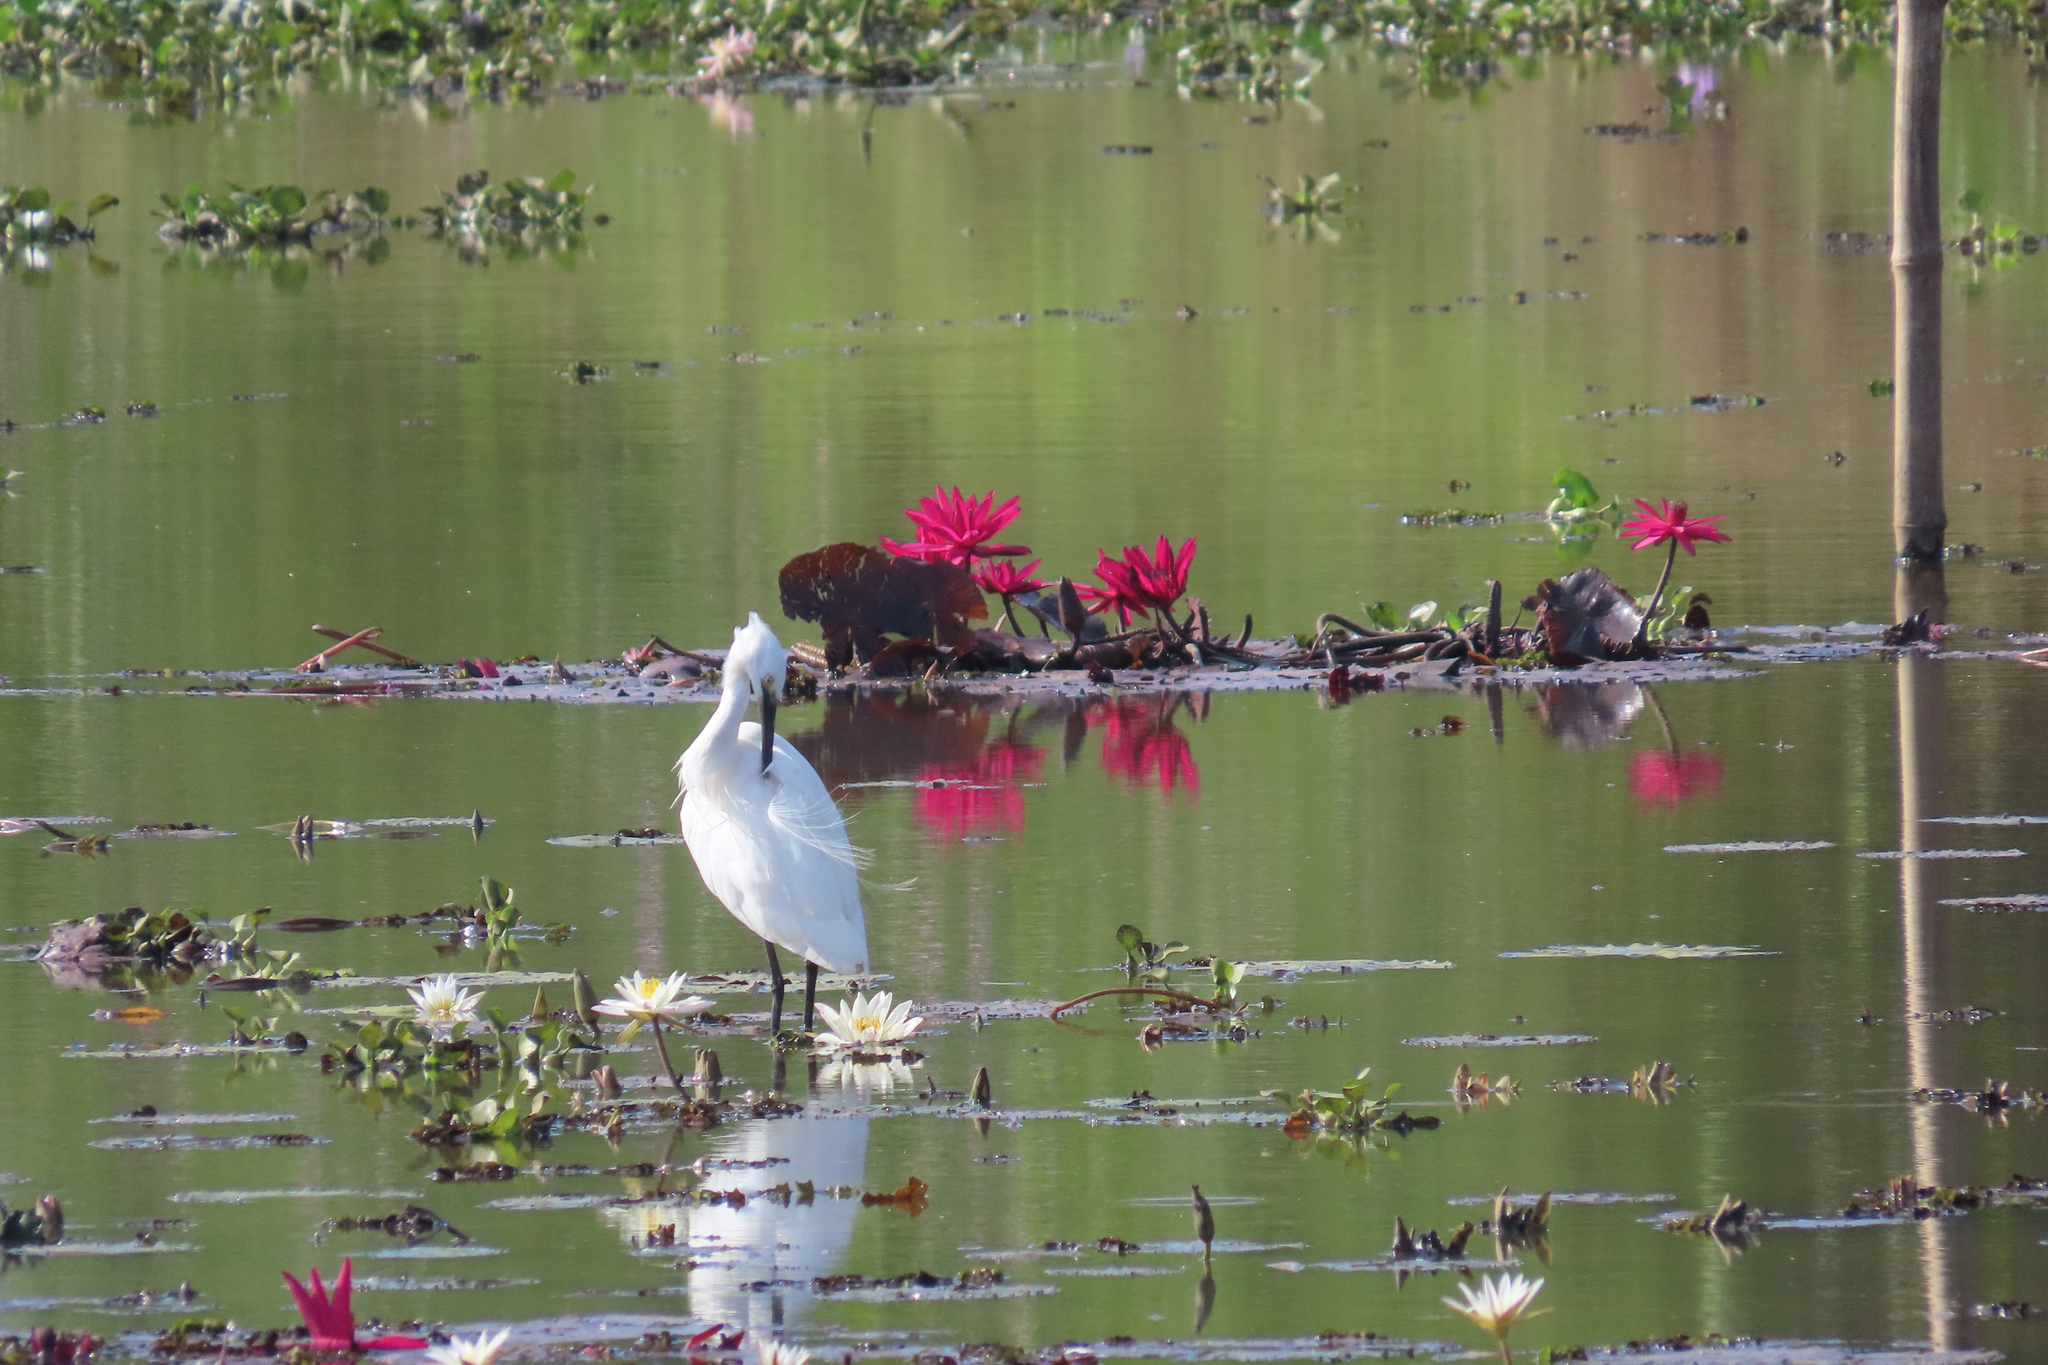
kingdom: Animalia
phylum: Chordata
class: Aves
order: Pelecaniformes
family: Ardeidae
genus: Egretta
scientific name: Egretta garzetta
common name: Little egret
